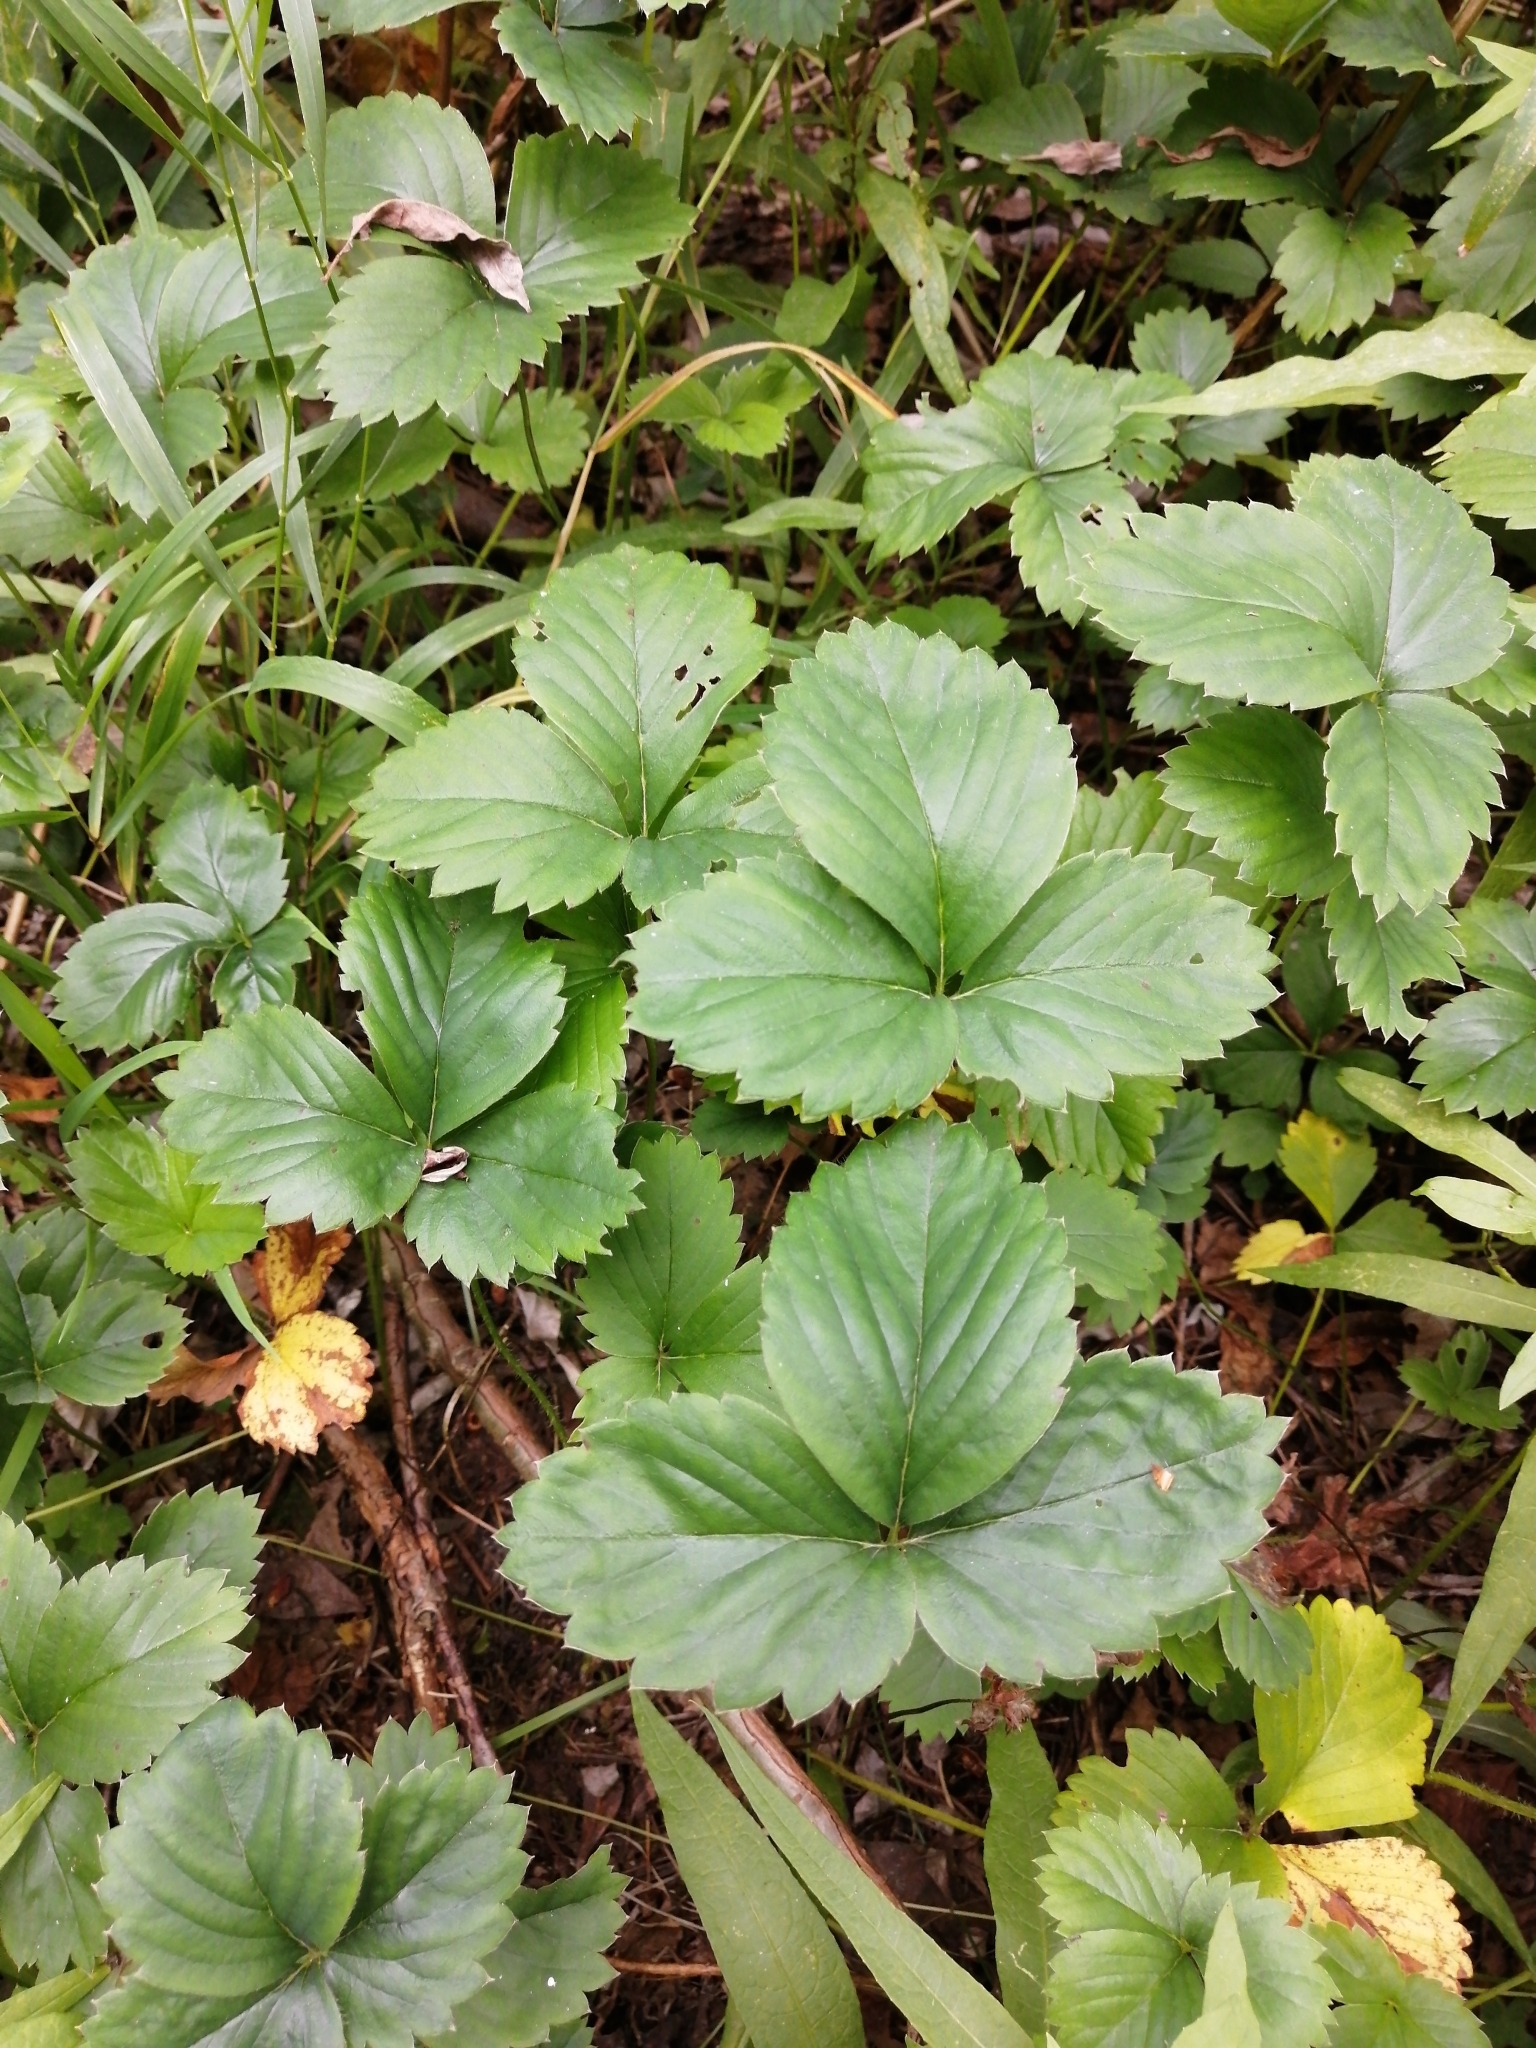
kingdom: Plantae
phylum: Tracheophyta
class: Magnoliopsida
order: Rosales
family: Rosaceae
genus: Fragaria
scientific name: Fragaria ananassa
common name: Garden strawberry
